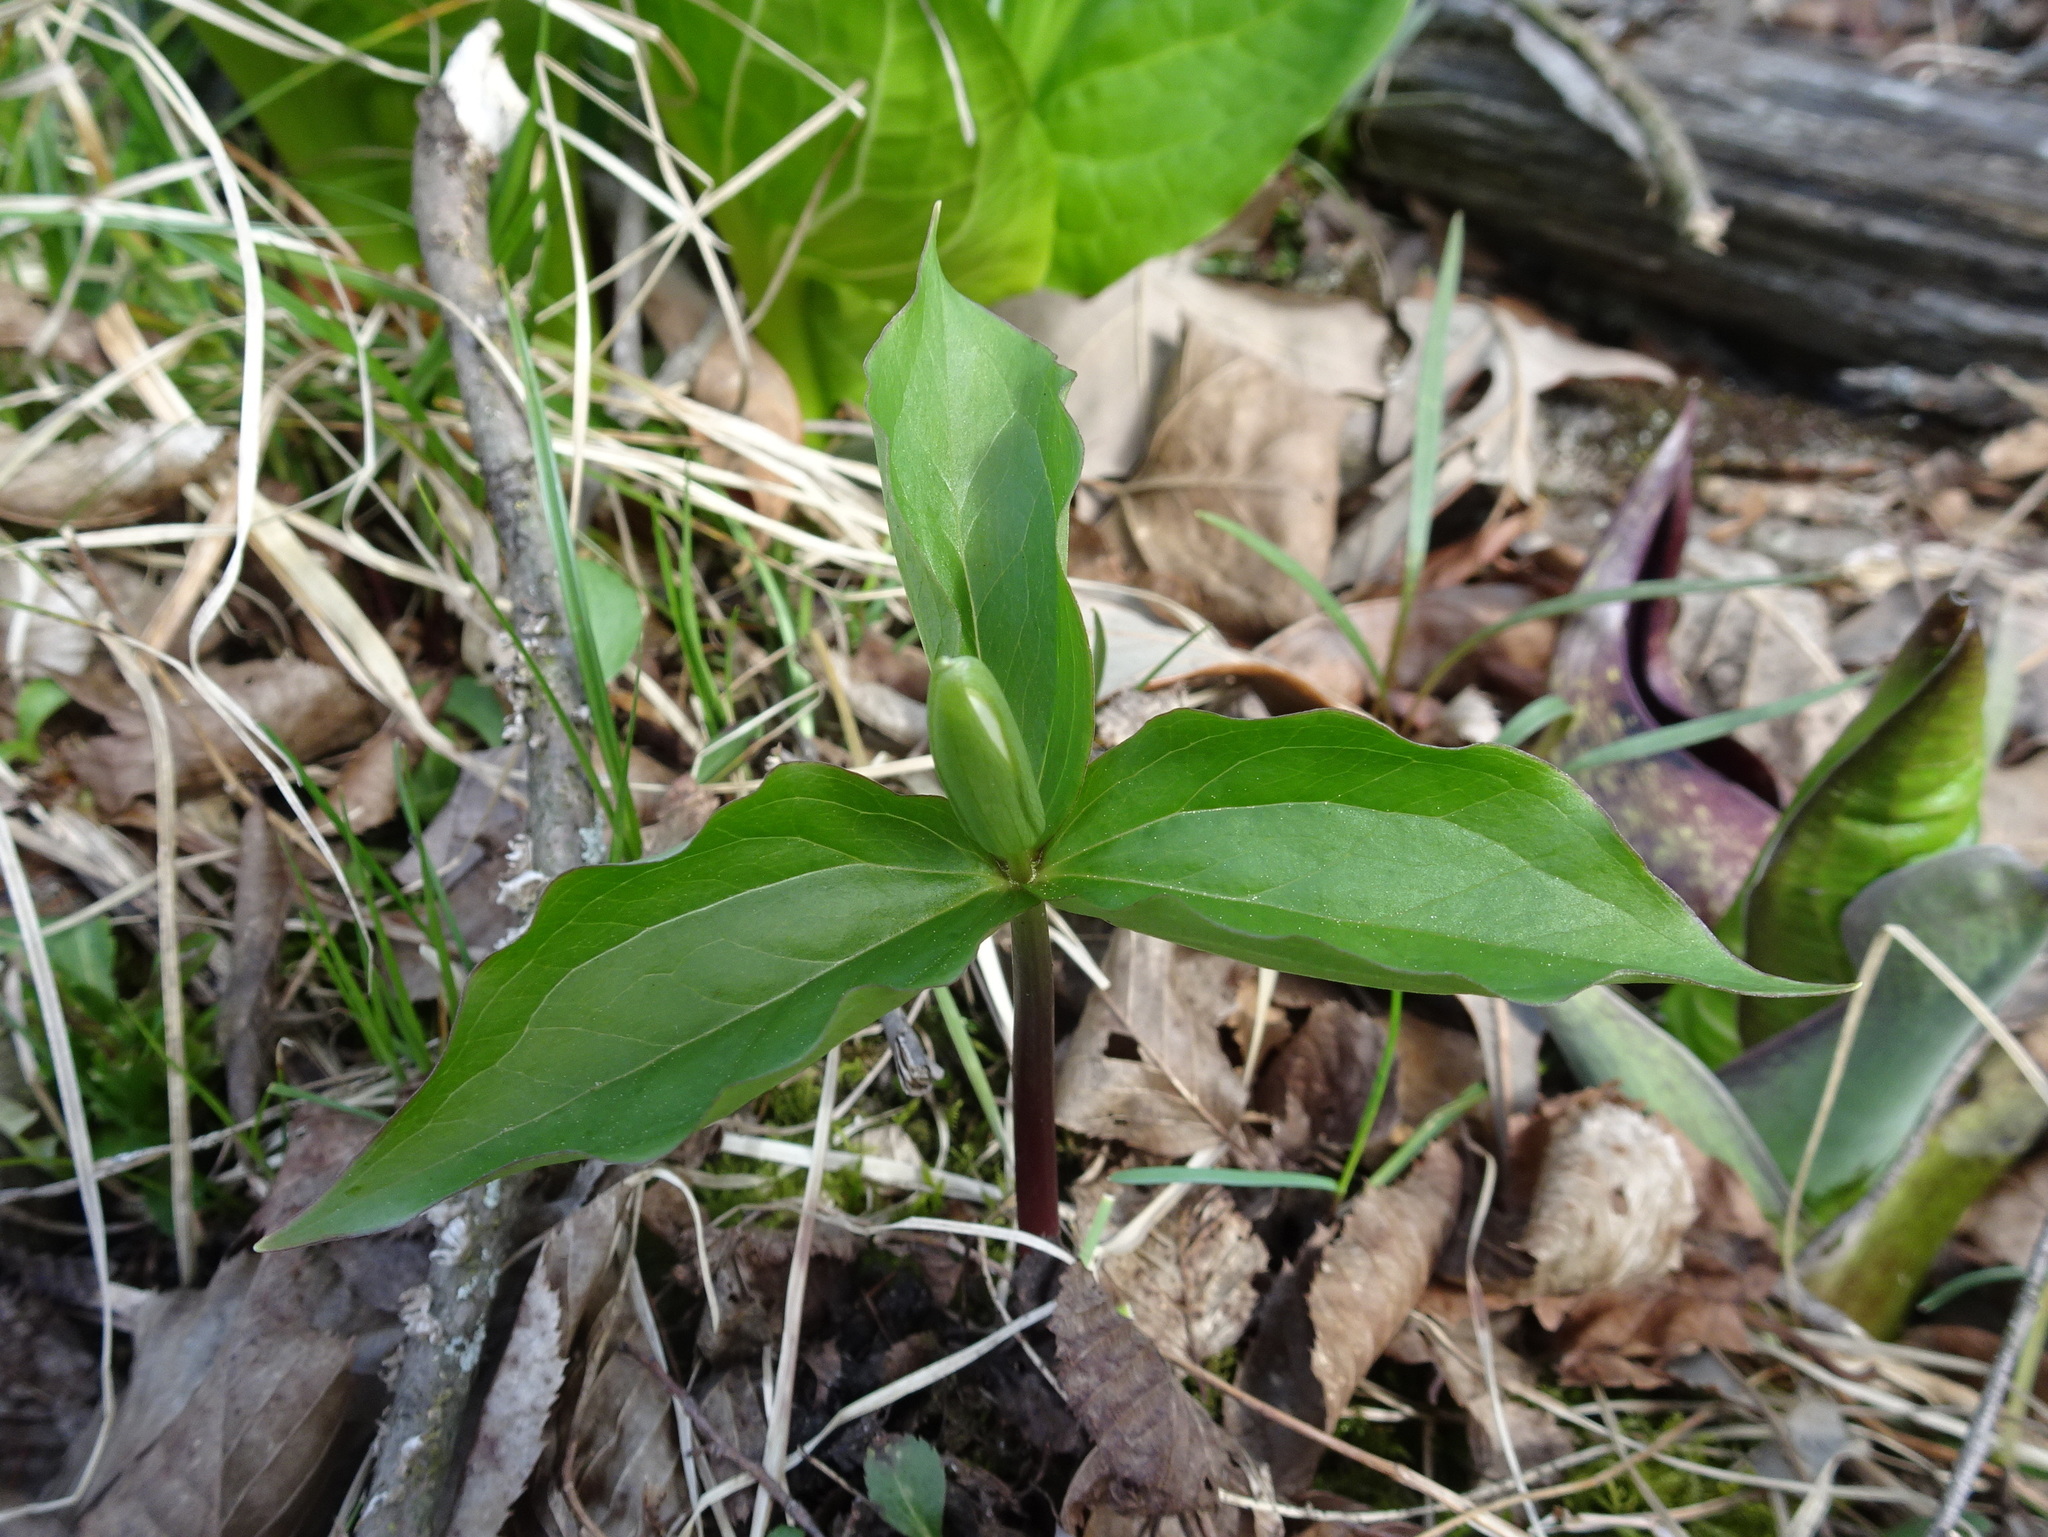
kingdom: Plantae
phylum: Tracheophyta
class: Liliopsida
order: Liliales
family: Melanthiaceae
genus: Trillium
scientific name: Trillium grandiflorum
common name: Great white trillium
